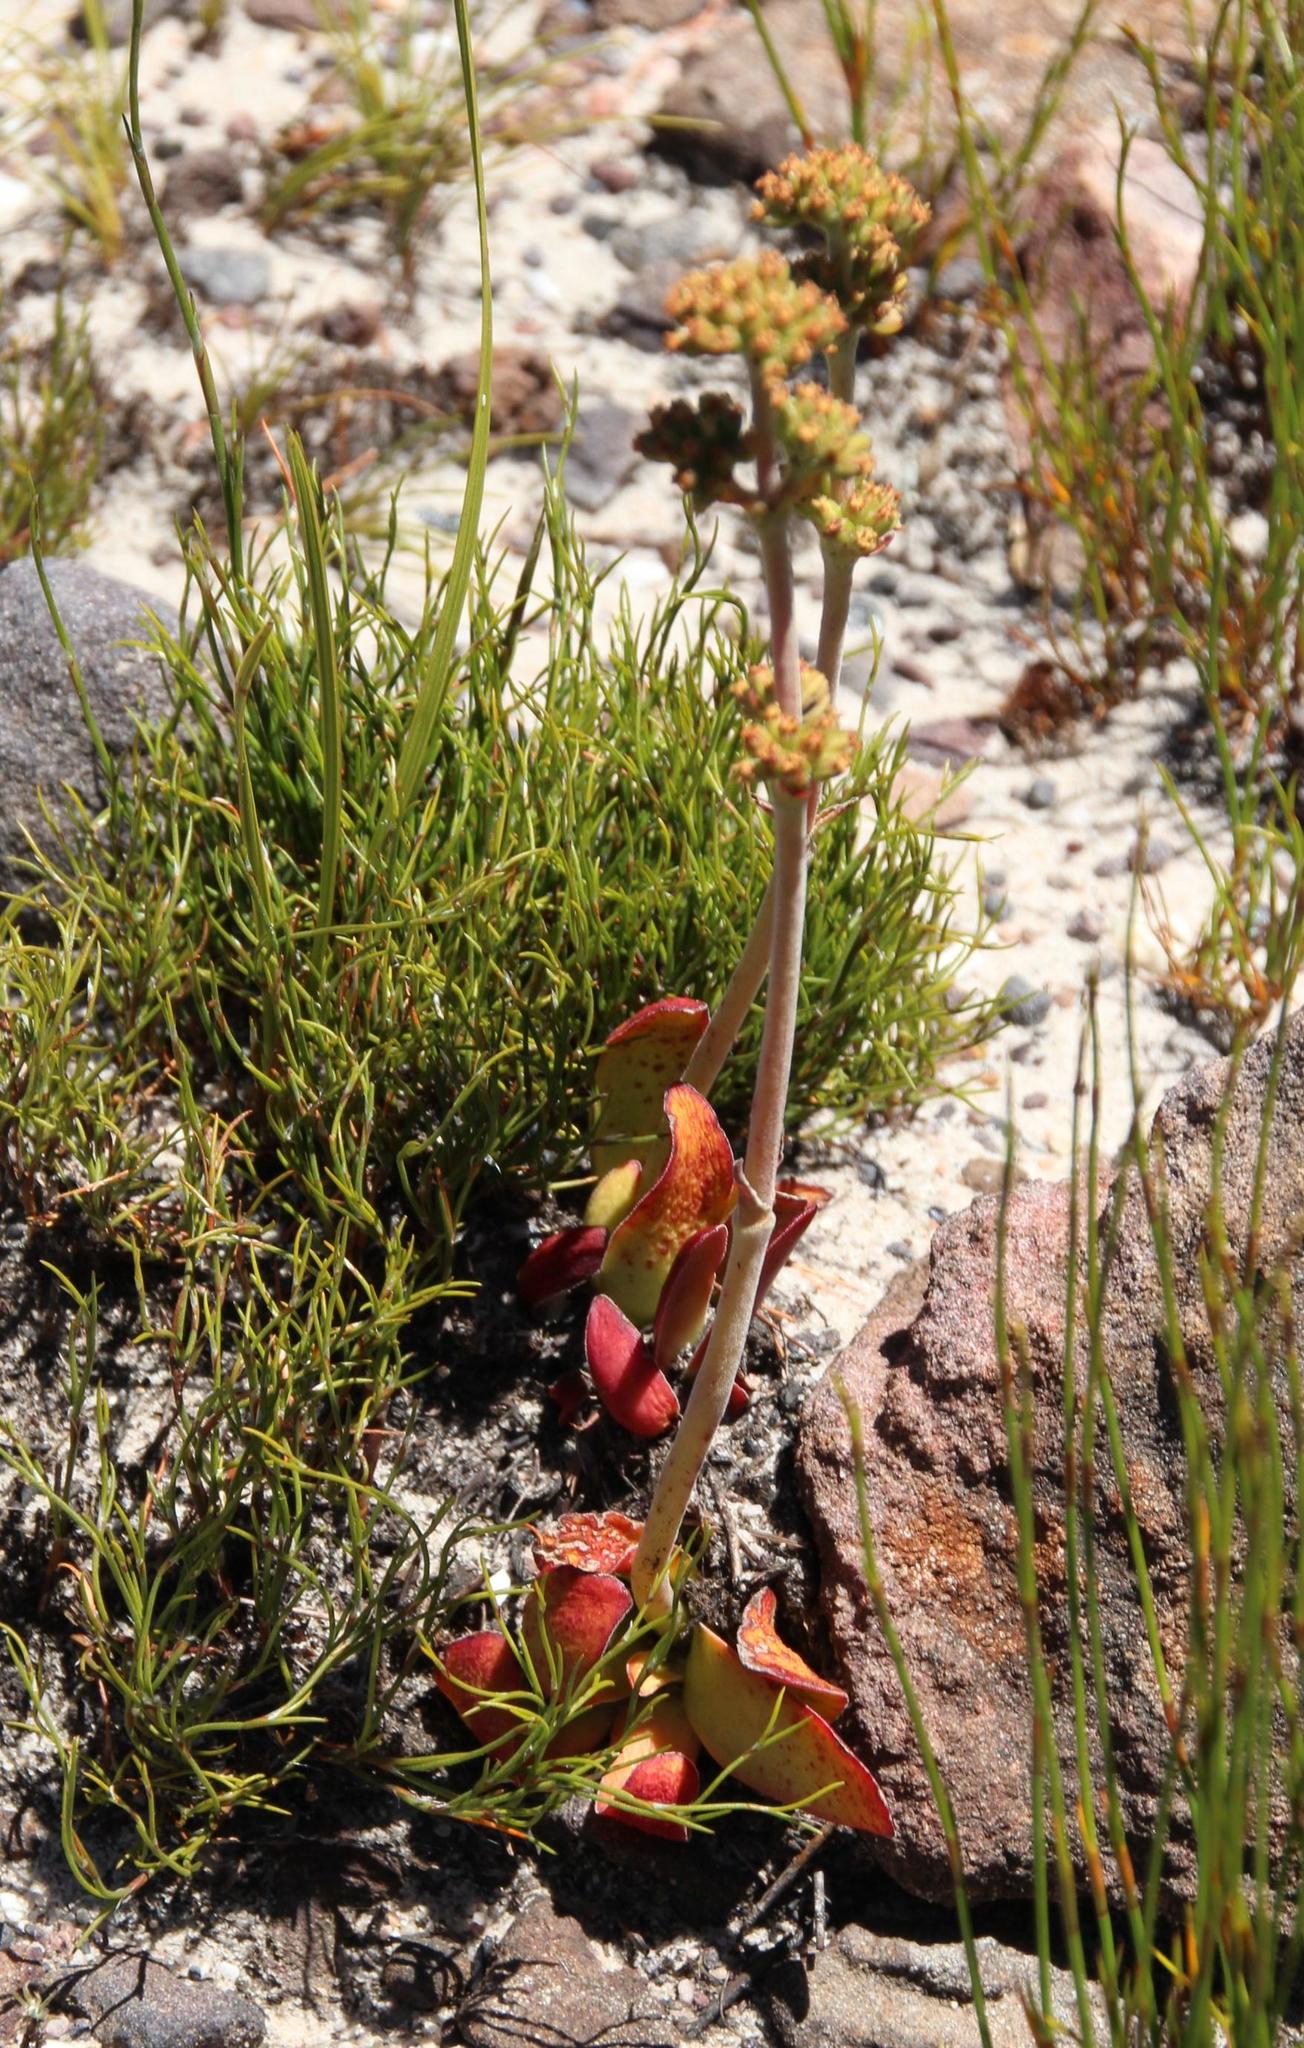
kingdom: Plantae
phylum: Tracheophyta
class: Magnoliopsida
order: Saxifragales
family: Crassulaceae
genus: Crassula
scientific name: Crassula nudicaulis
